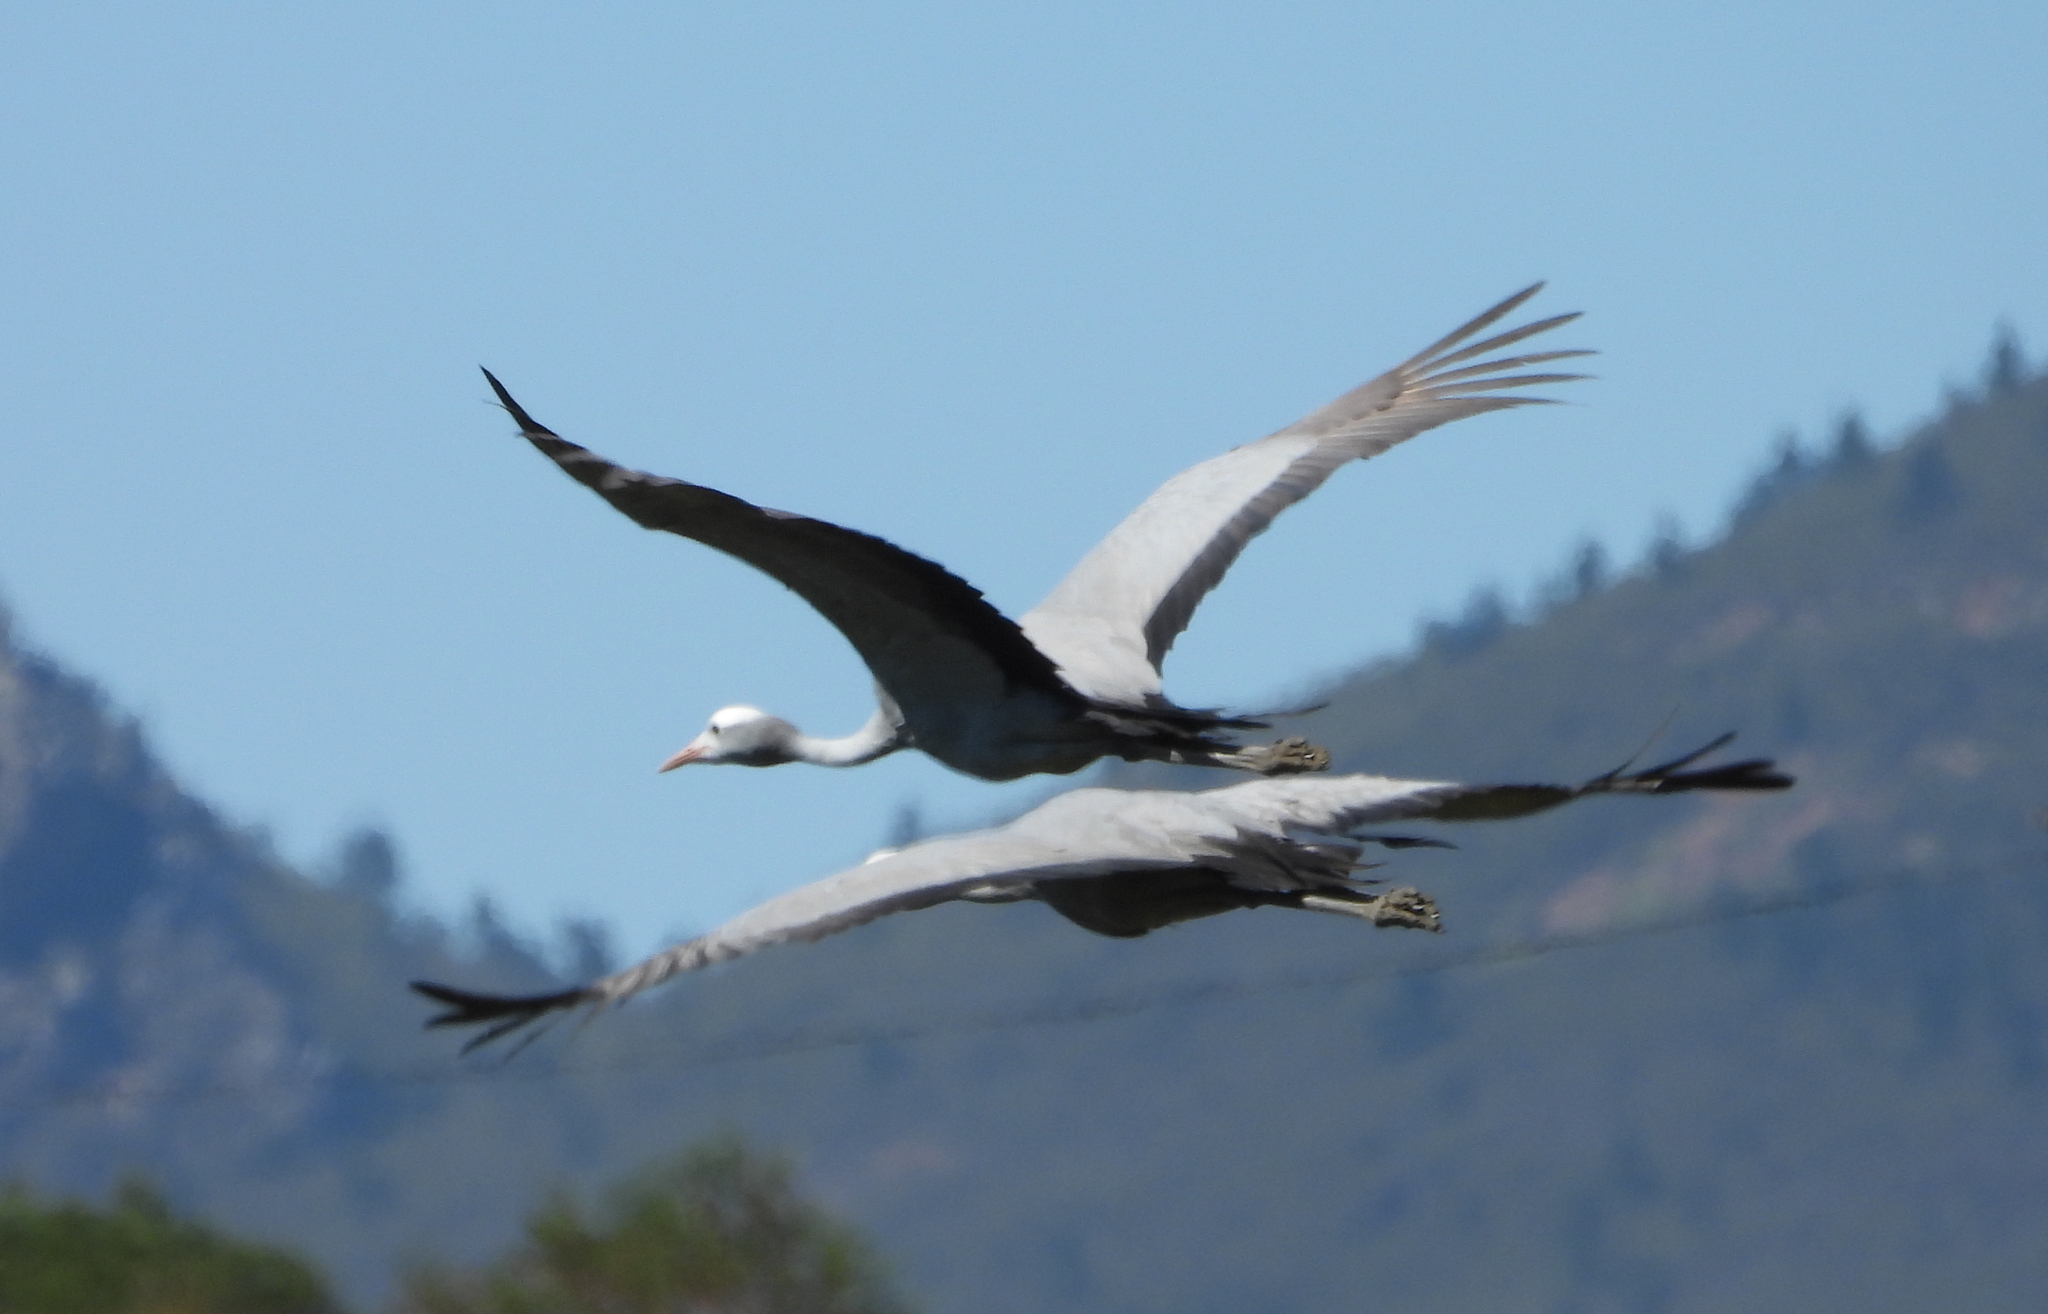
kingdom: Animalia
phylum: Chordata
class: Aves
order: Gruiformes
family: Gruidae
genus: Anthropoides
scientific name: Anthropoides paradiseus
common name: Blue crane
